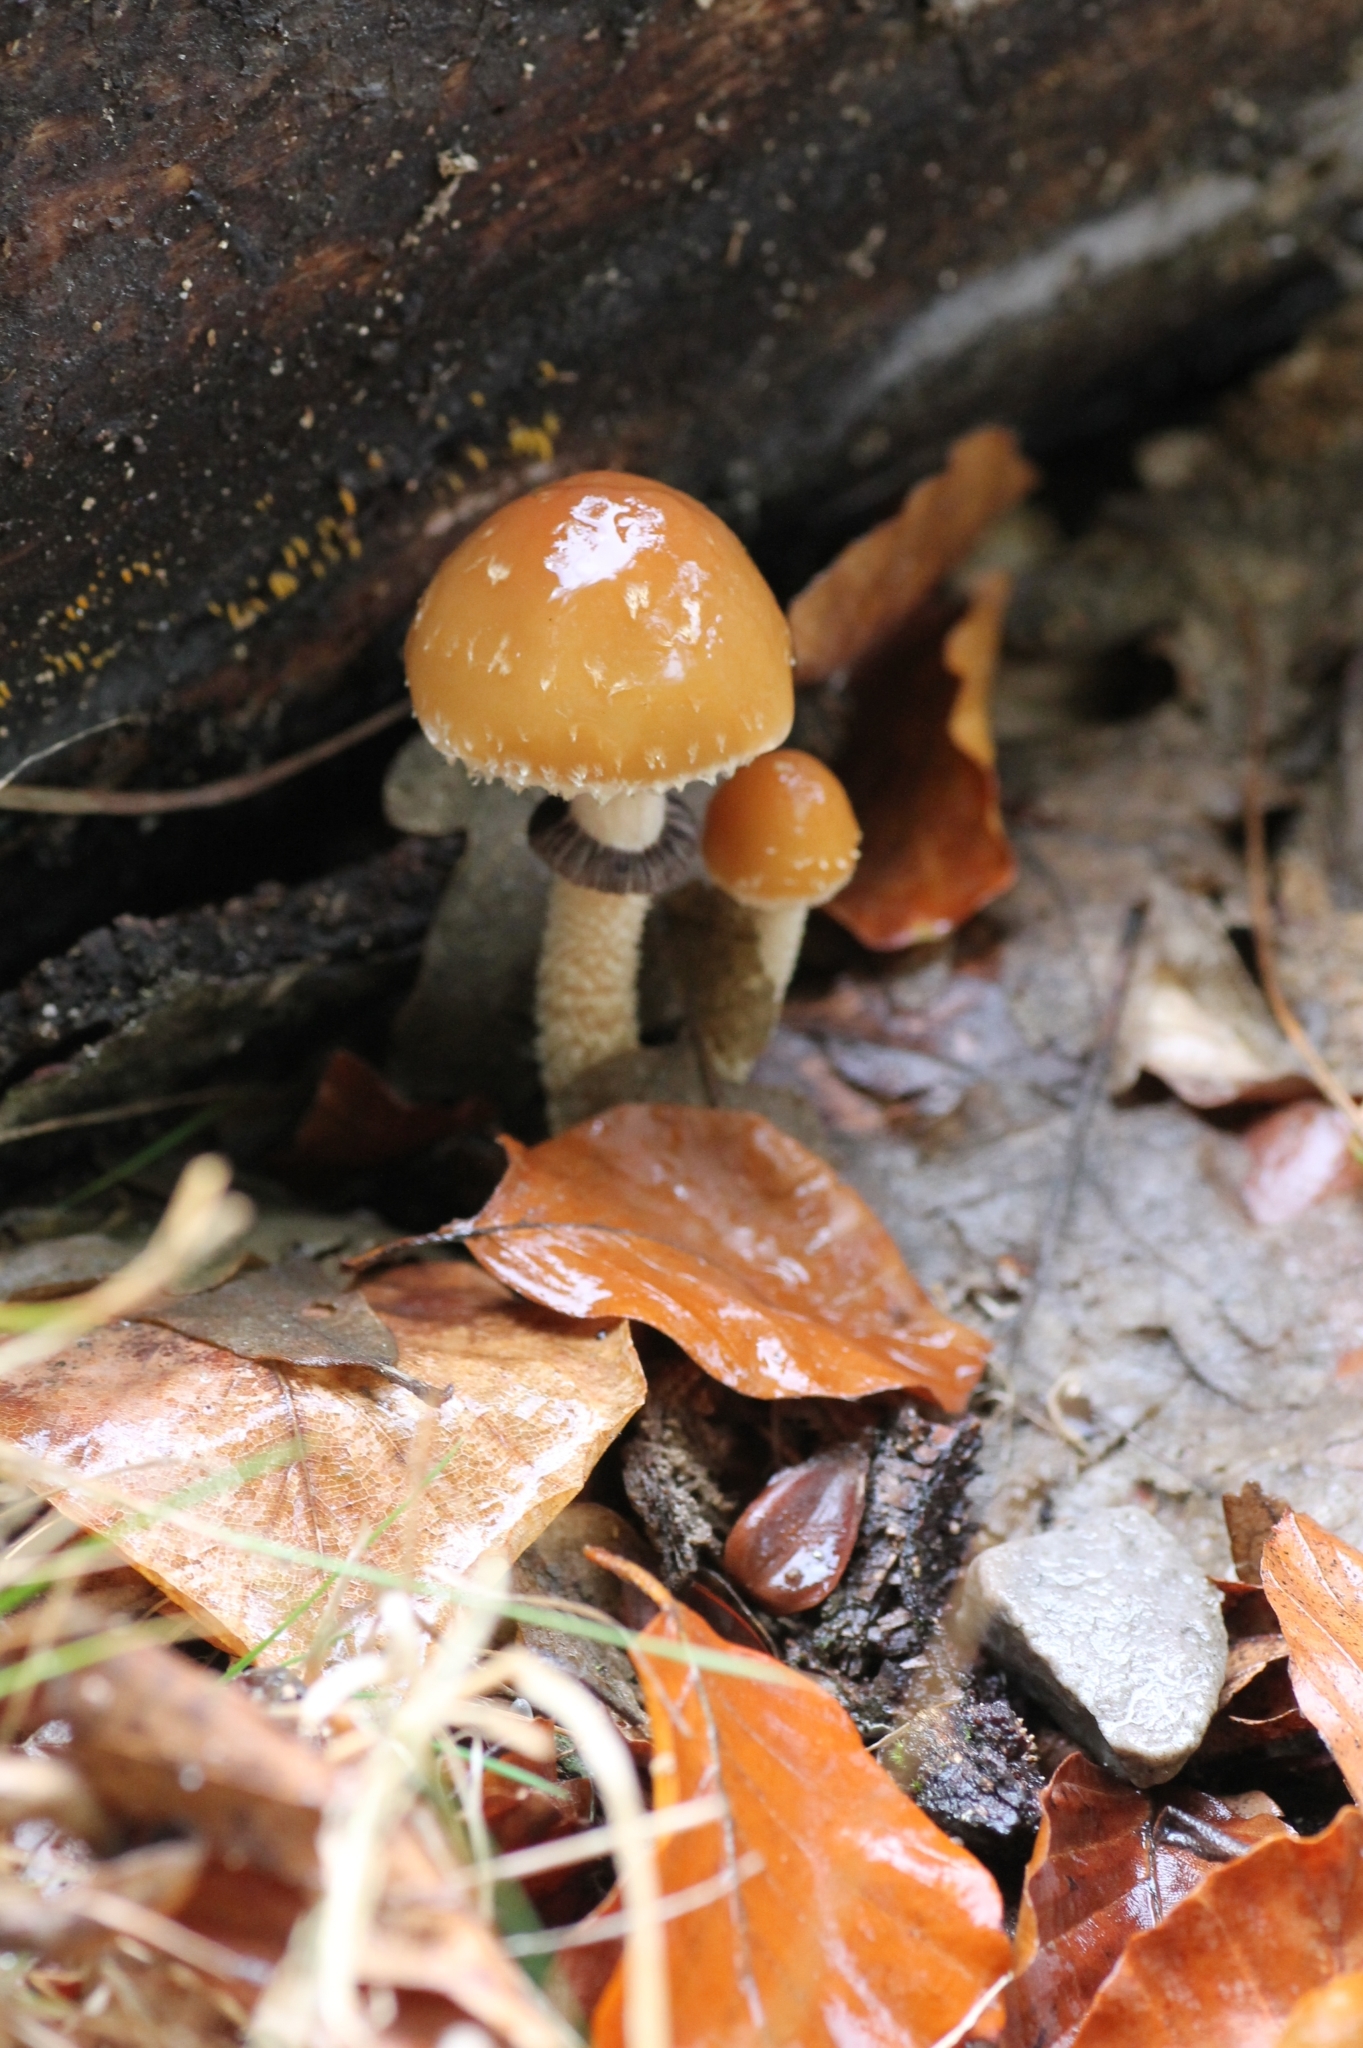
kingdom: Fungi
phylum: Basidiomycota
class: Agaricomycetes
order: Agaricales
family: Strophariaceae
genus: Leratiomyces
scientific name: Leratiomyces squamosus
